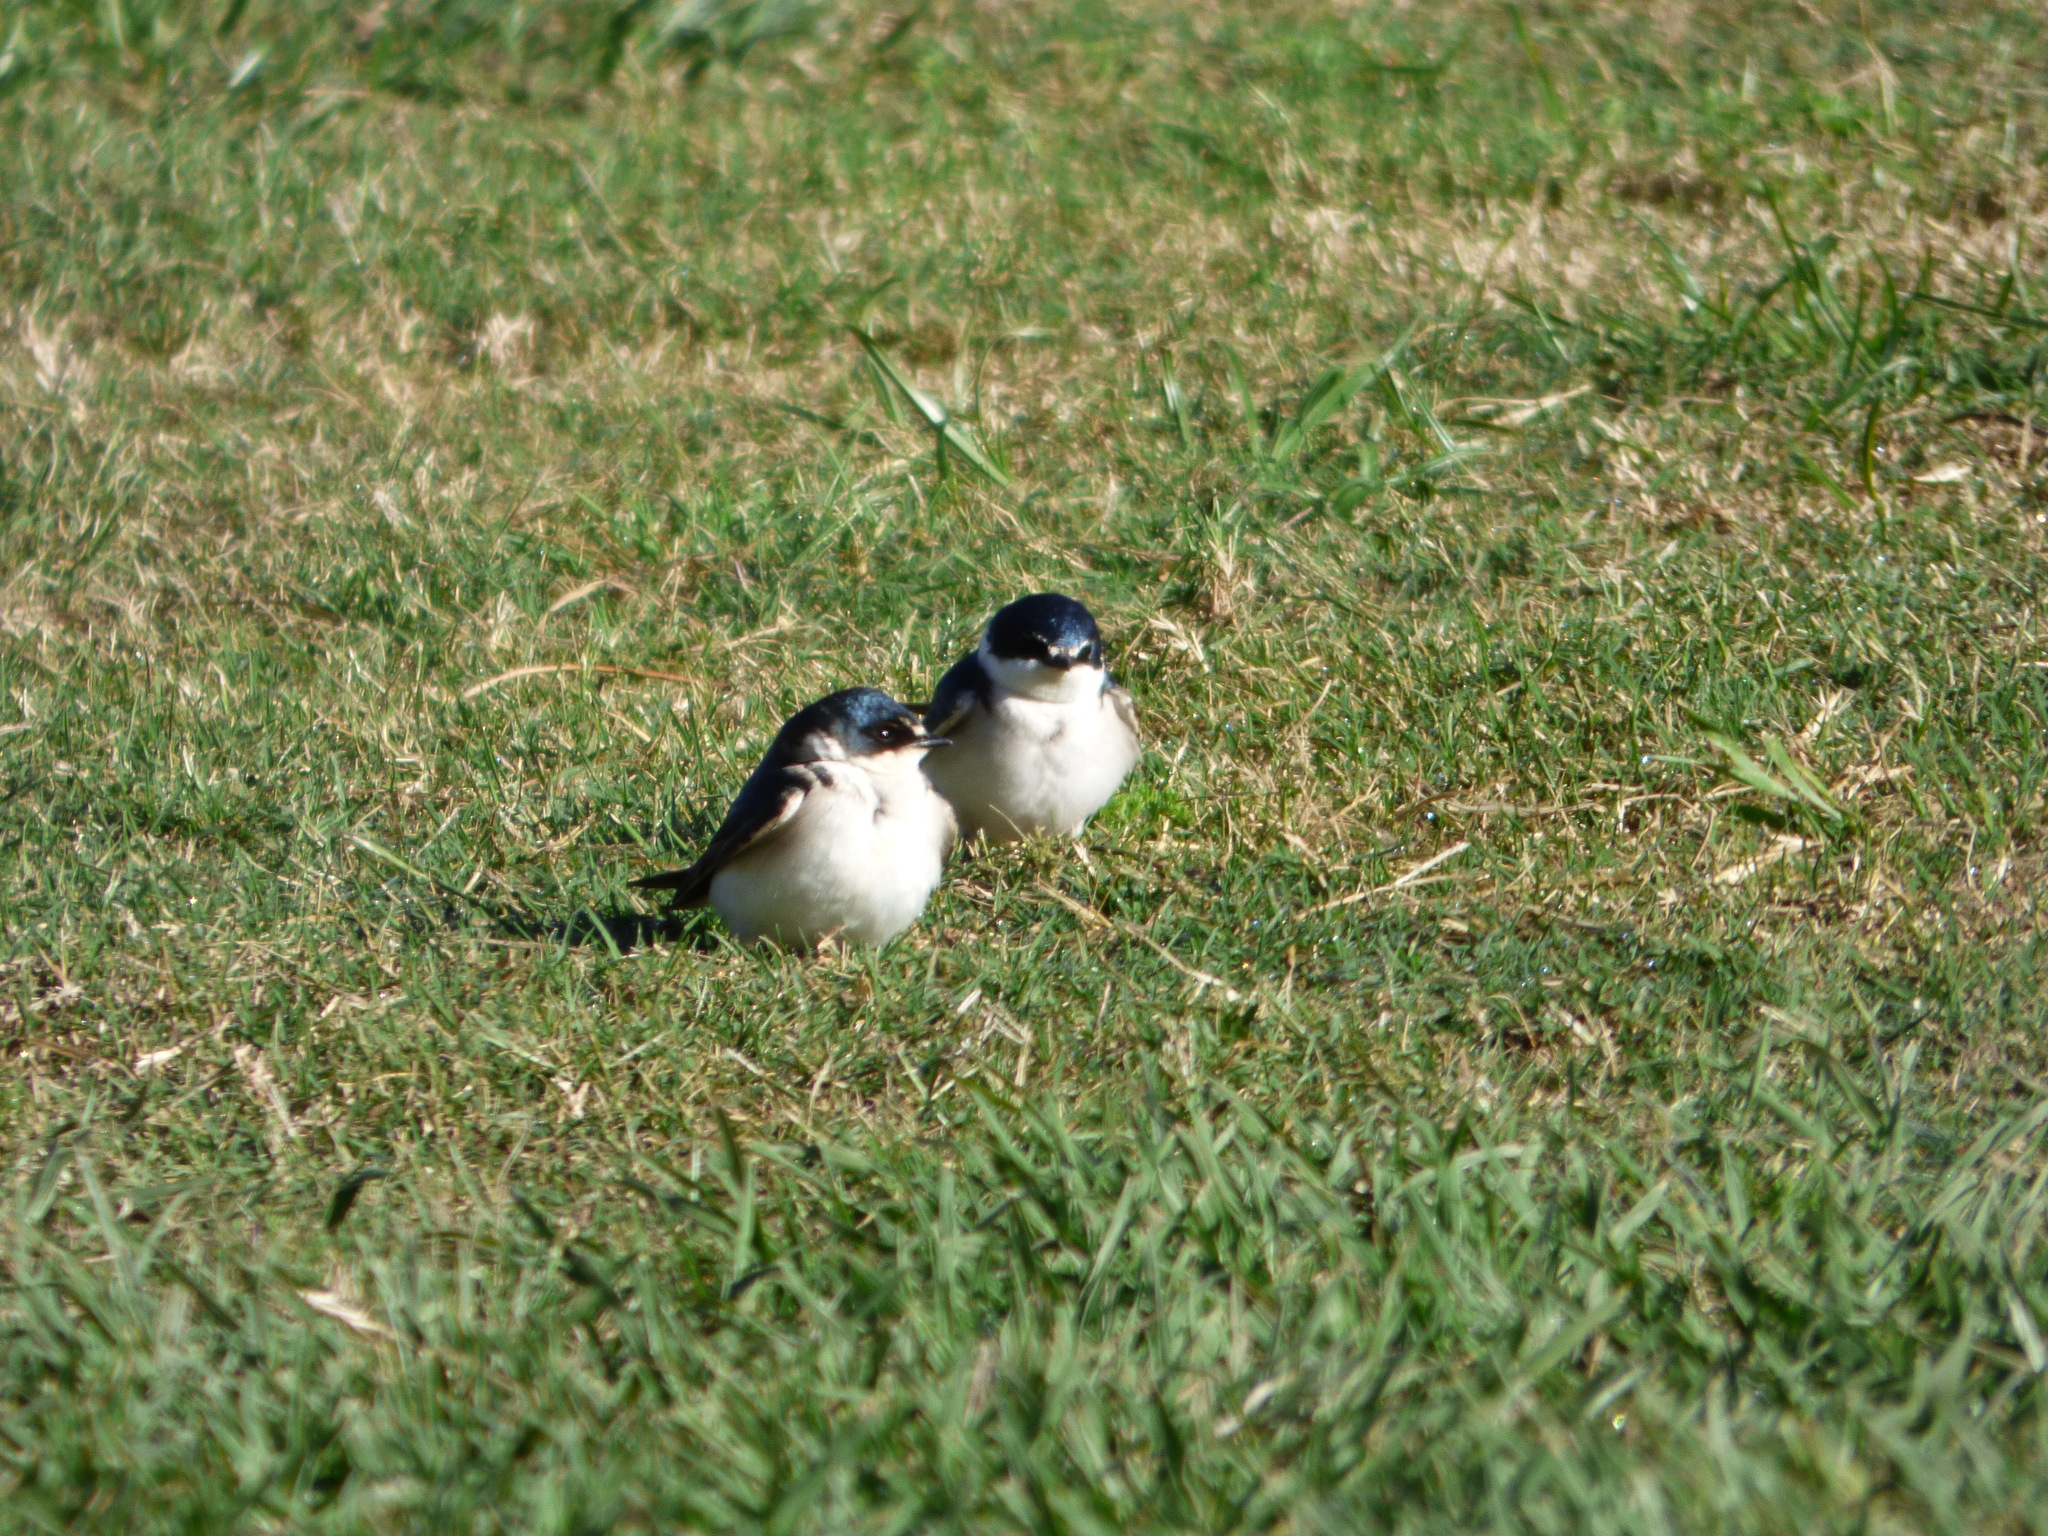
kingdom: Animalia
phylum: Chordata
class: Aves
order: Passeriformes
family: Hirundinidae
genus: Tachycineta
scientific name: Tachycineta leucorrhoa
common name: White-rumped swallow
